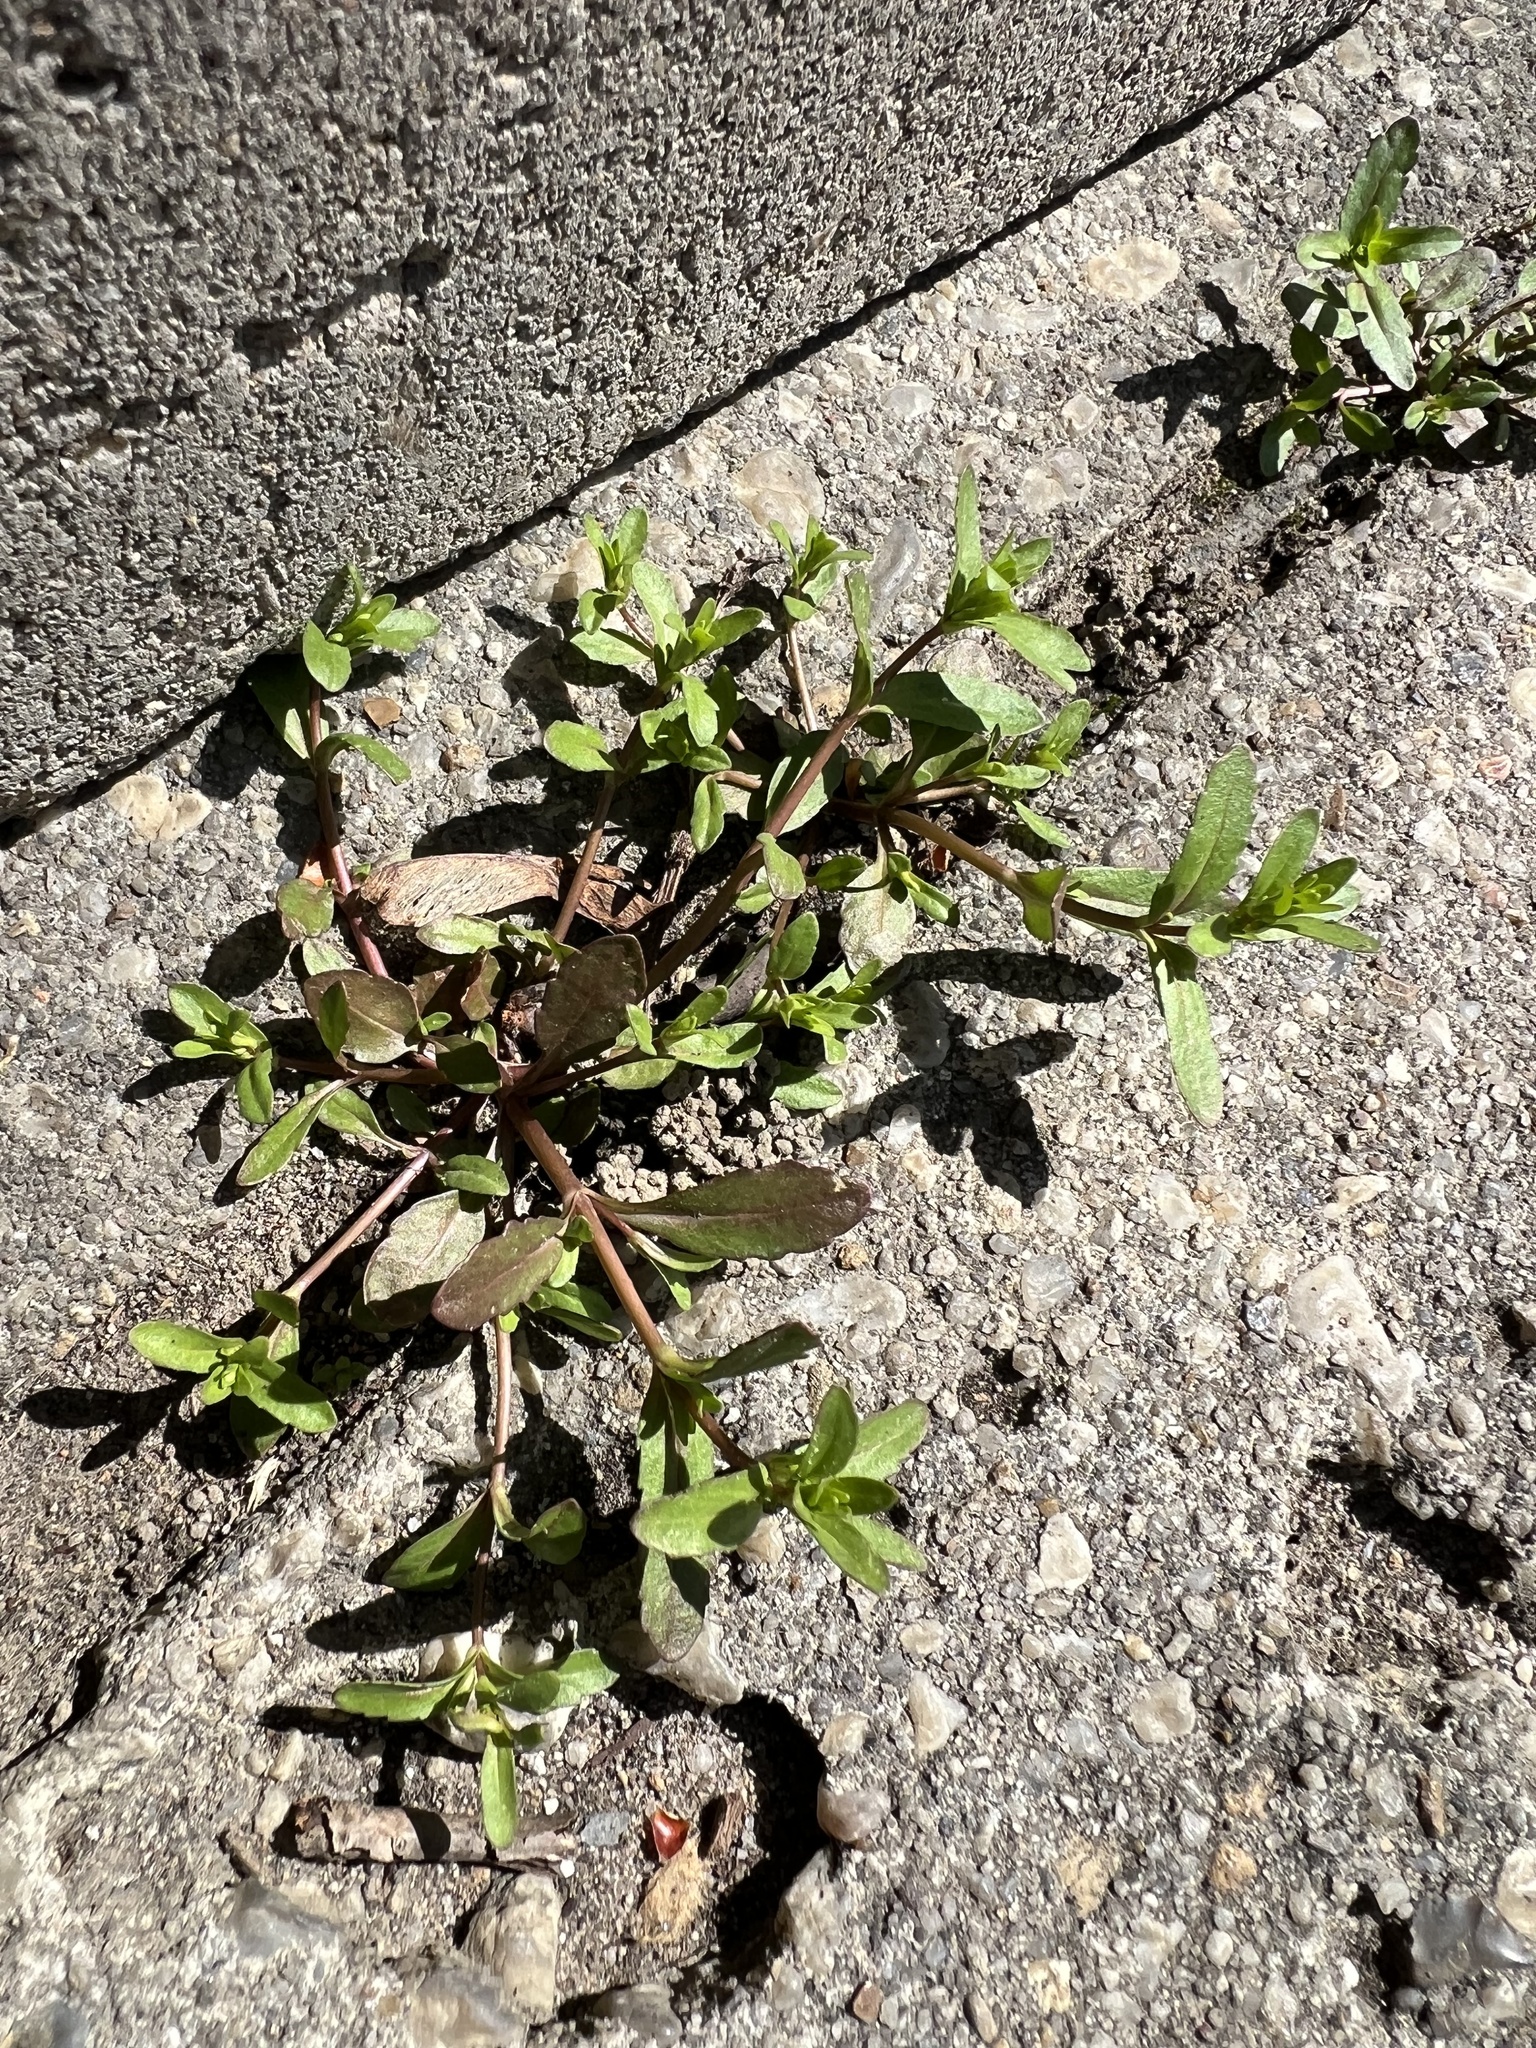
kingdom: Plantae
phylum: Tracheophyta
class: Magnoliopsida
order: Lamiales
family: Plantaginaceae
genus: Veronica
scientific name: Veronica peregrina
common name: Neckweed
